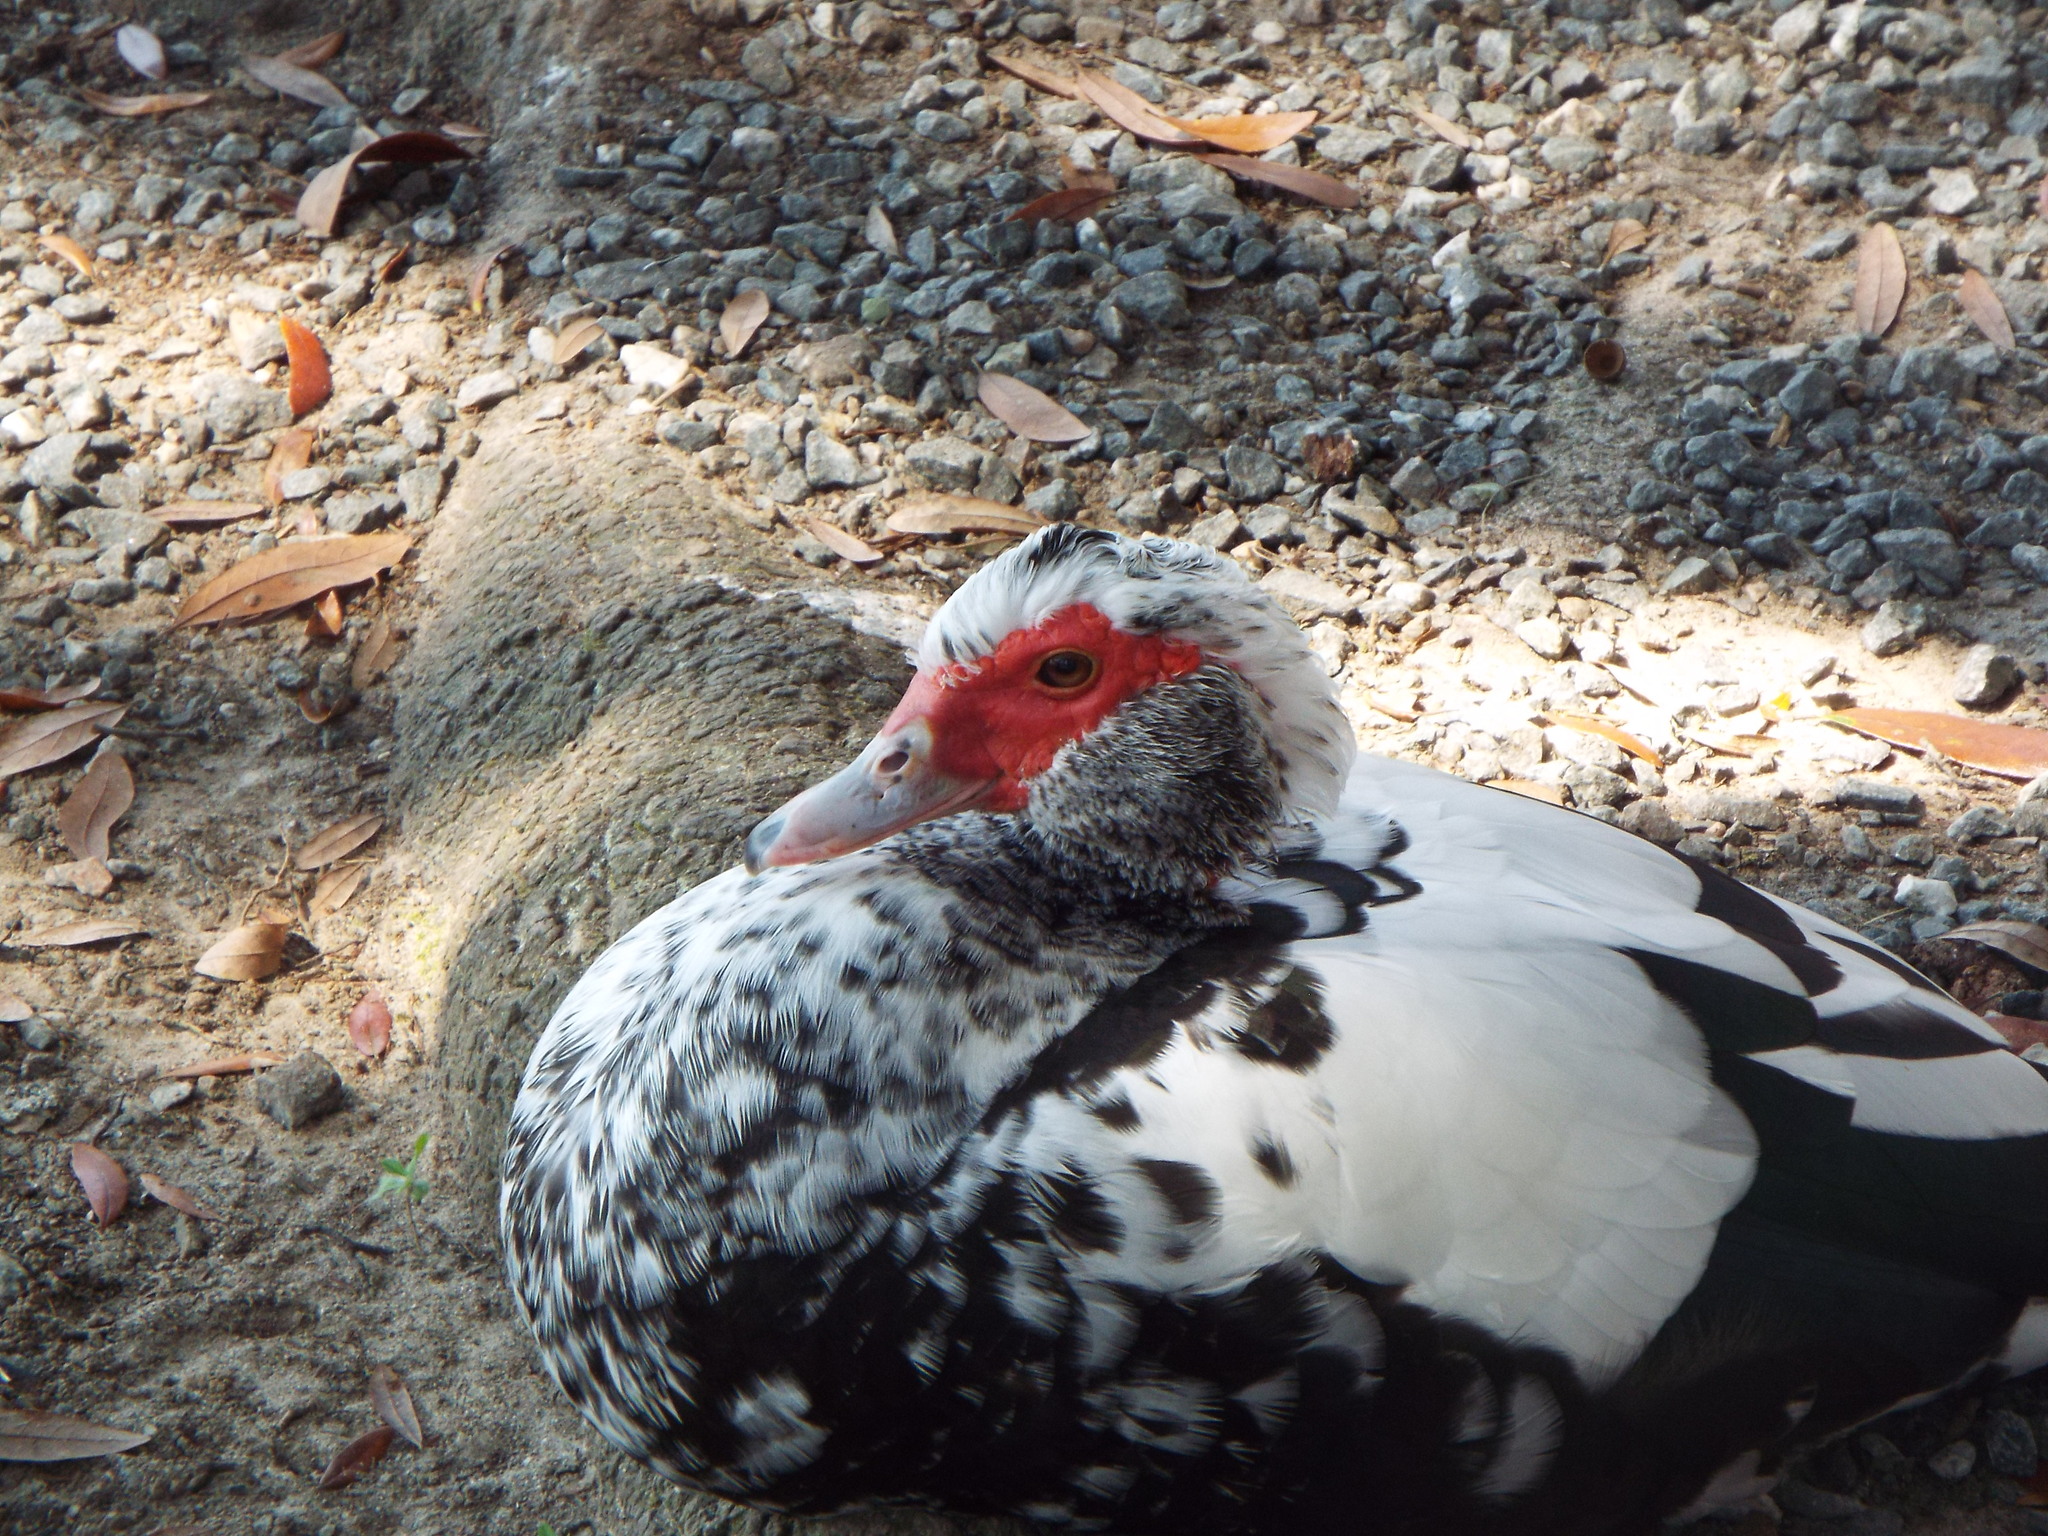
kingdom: Animalia
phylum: Chordata
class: Aves
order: Anseriformes
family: Anatidae
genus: Cairina
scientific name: Cairina moschata
